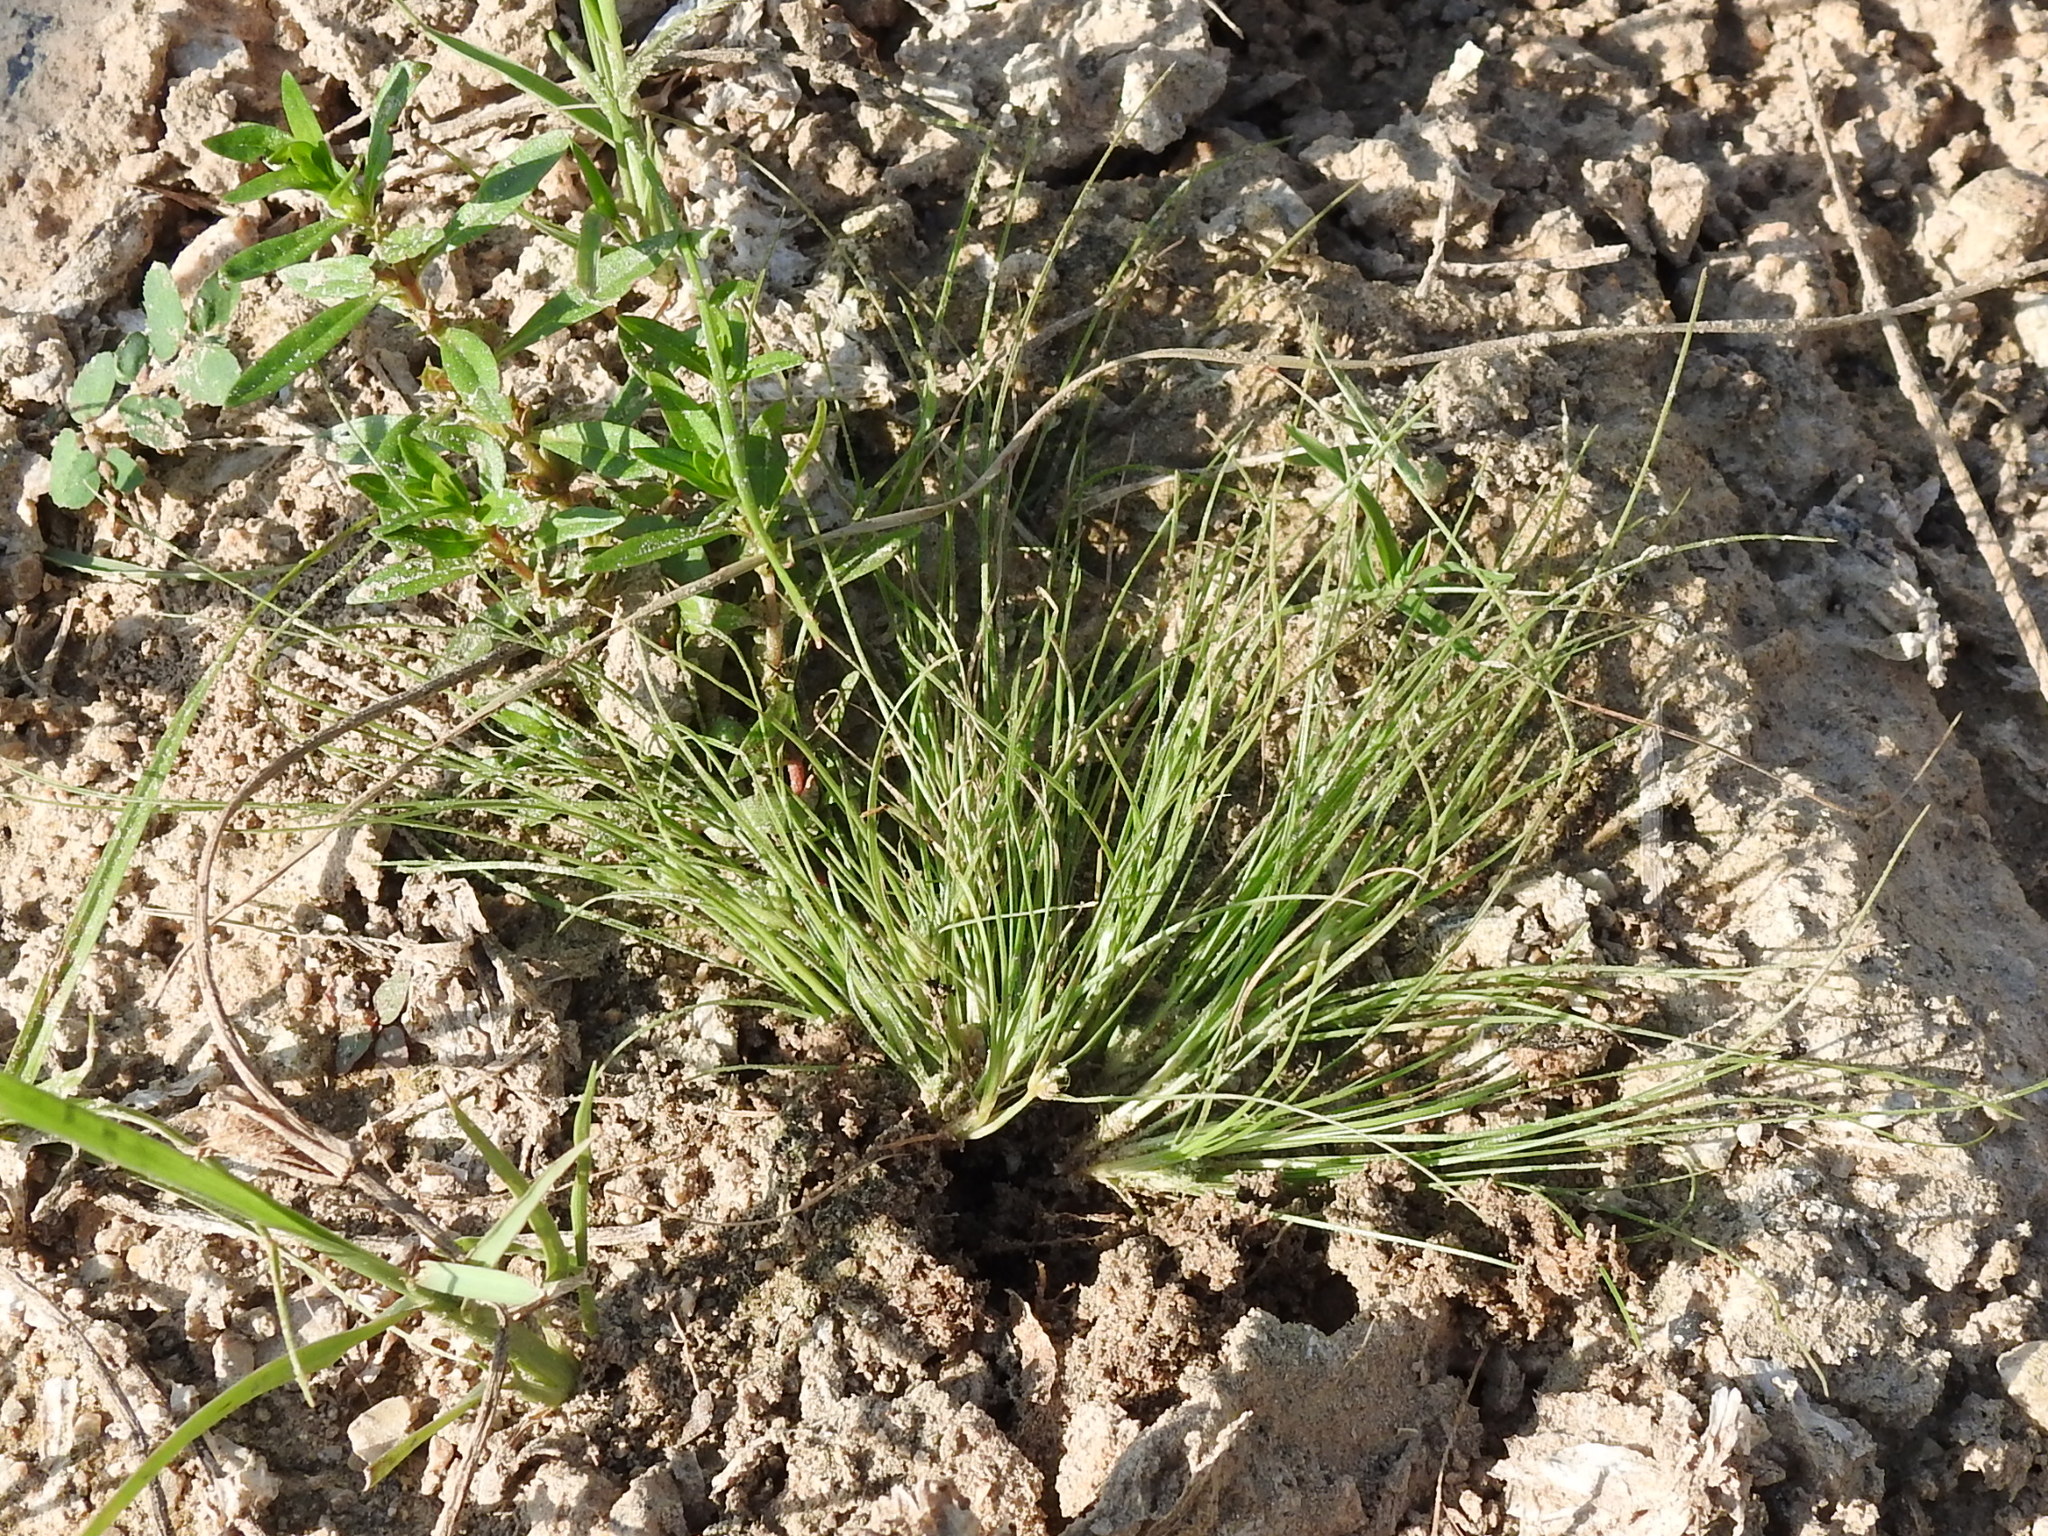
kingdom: Plantae
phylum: Tracheophyta
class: Liliopsida
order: Poales
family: Cyperaceae
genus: Fimbristylis
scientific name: Fimbristylis vahlii
